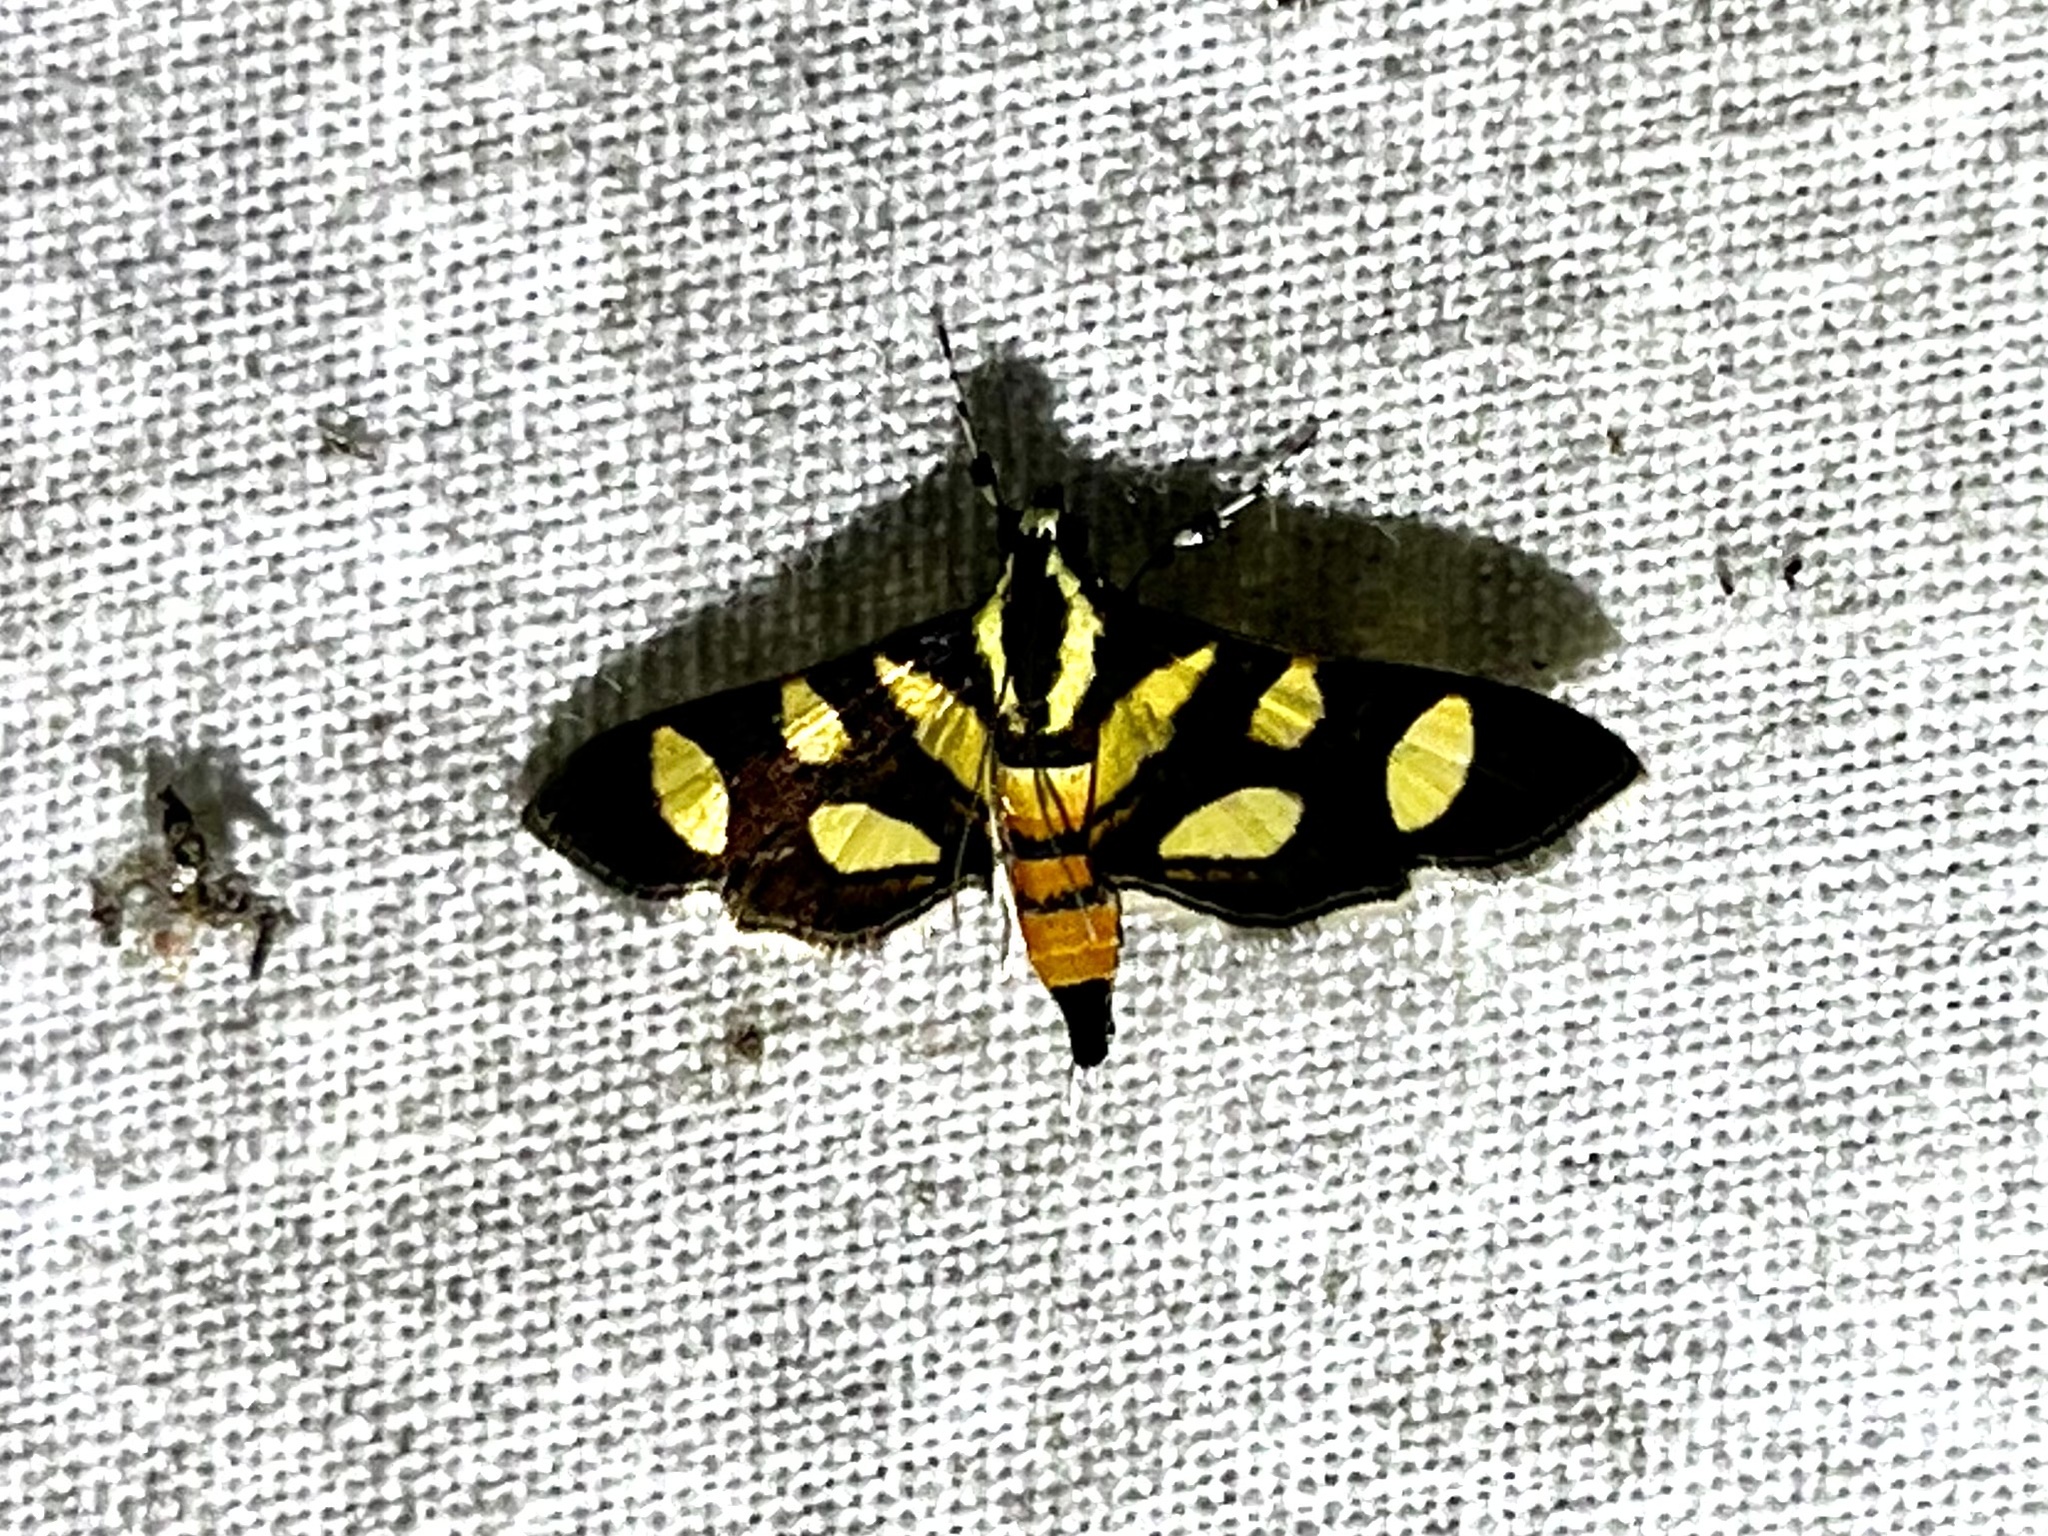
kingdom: Animalia
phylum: Arthropoda
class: Insecta
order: Lepidoptera
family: Crambidae
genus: Syngamia
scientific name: Syngamia florella
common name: Orange-spotted flower moth
